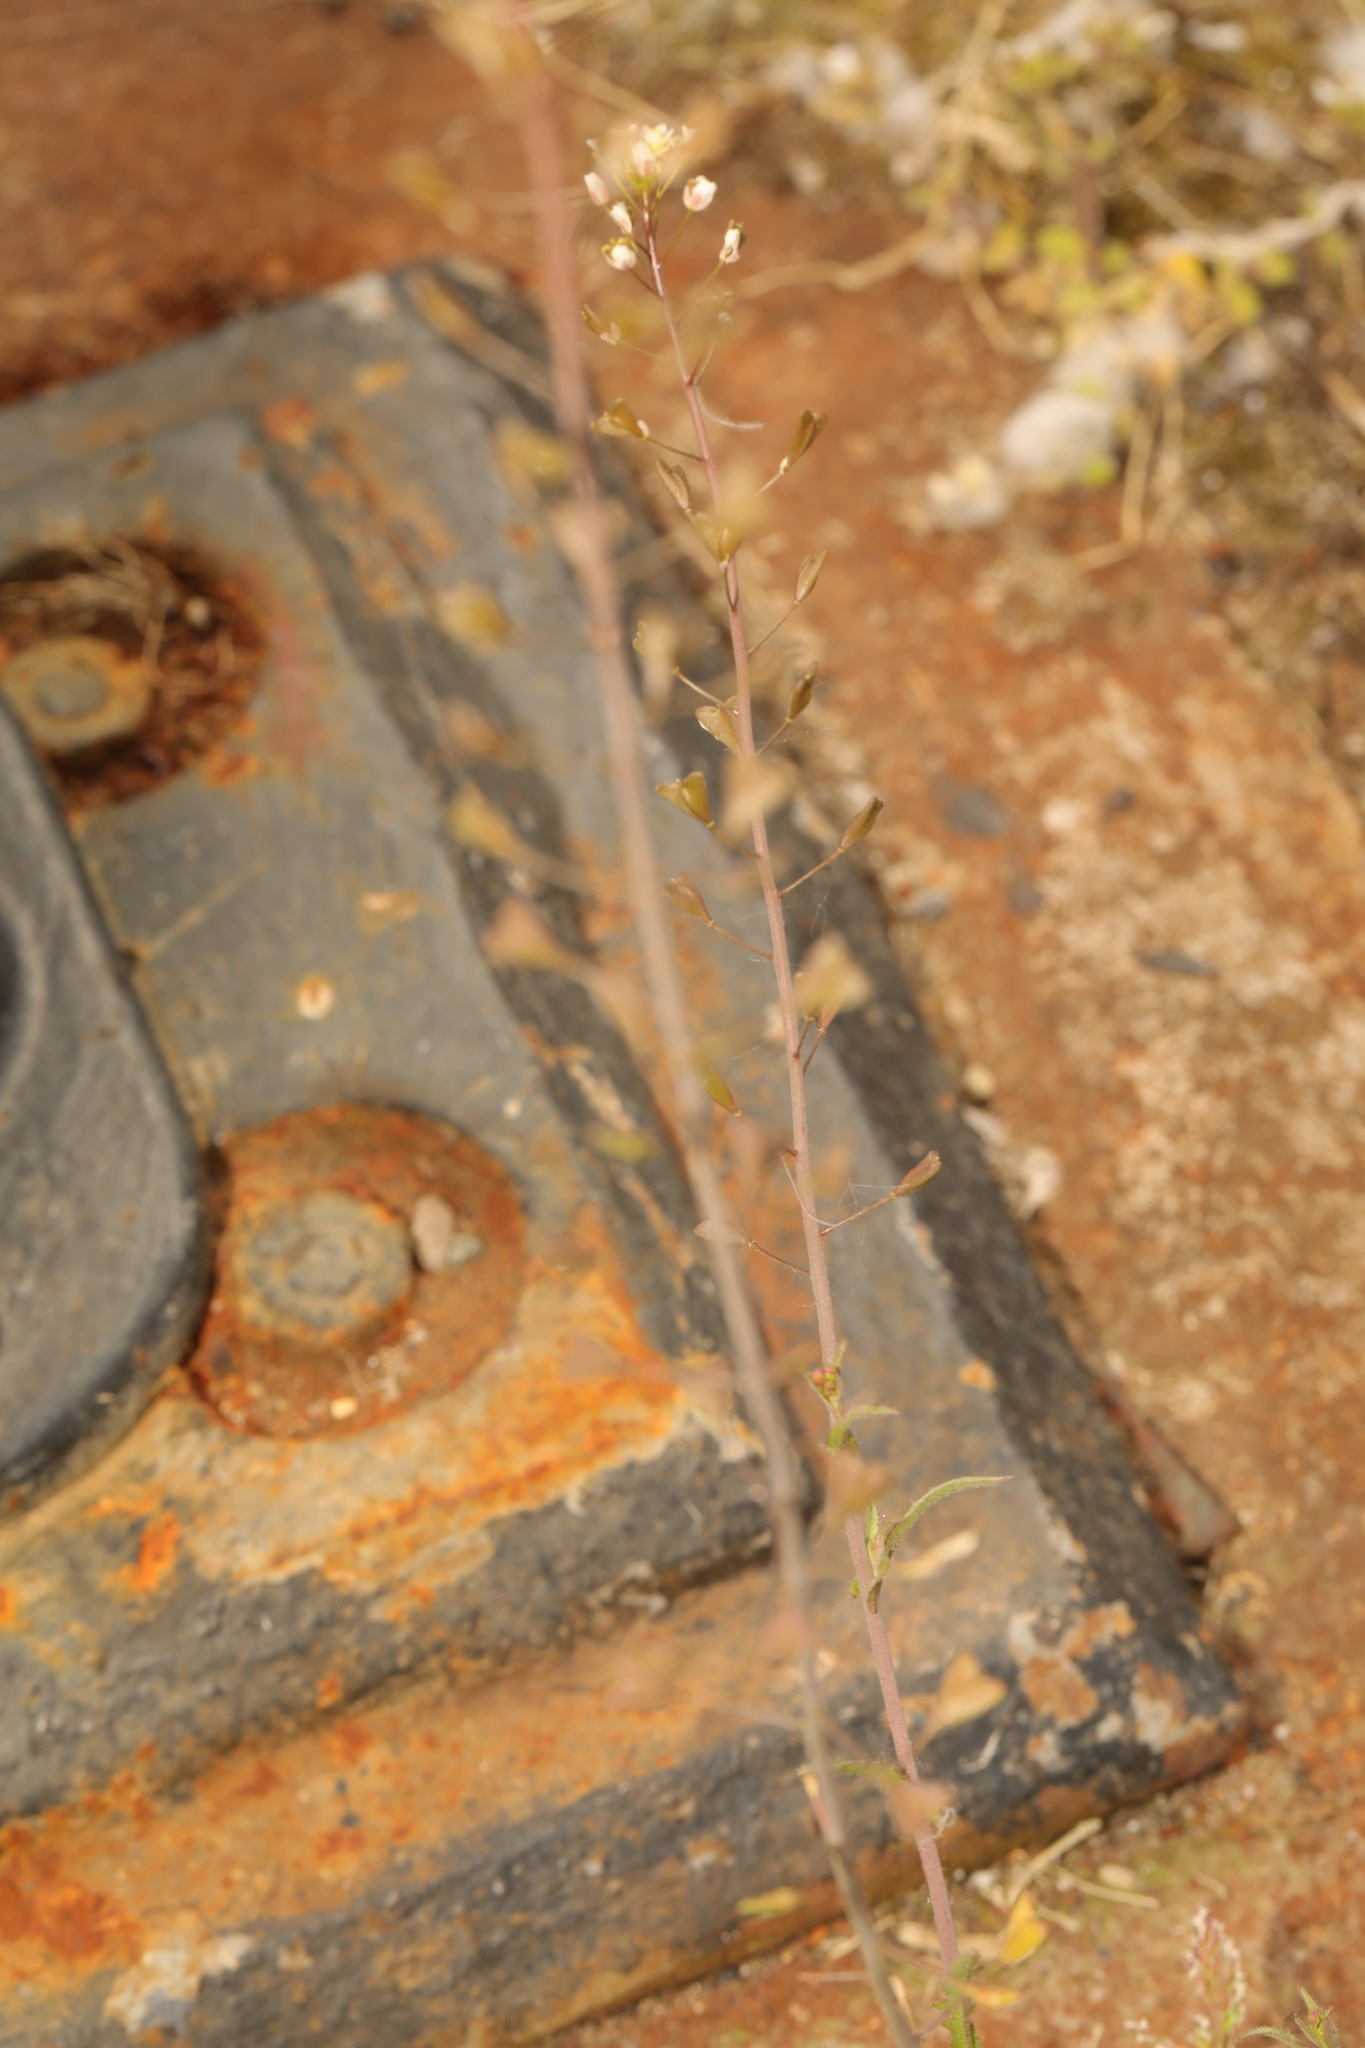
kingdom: Plantae
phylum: Tracheophyta
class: Magnoliopsida
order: Brassicales
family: Brassicaceae
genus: Capsella
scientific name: Capsella bursa-pastoris
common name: Shepherd's purse
